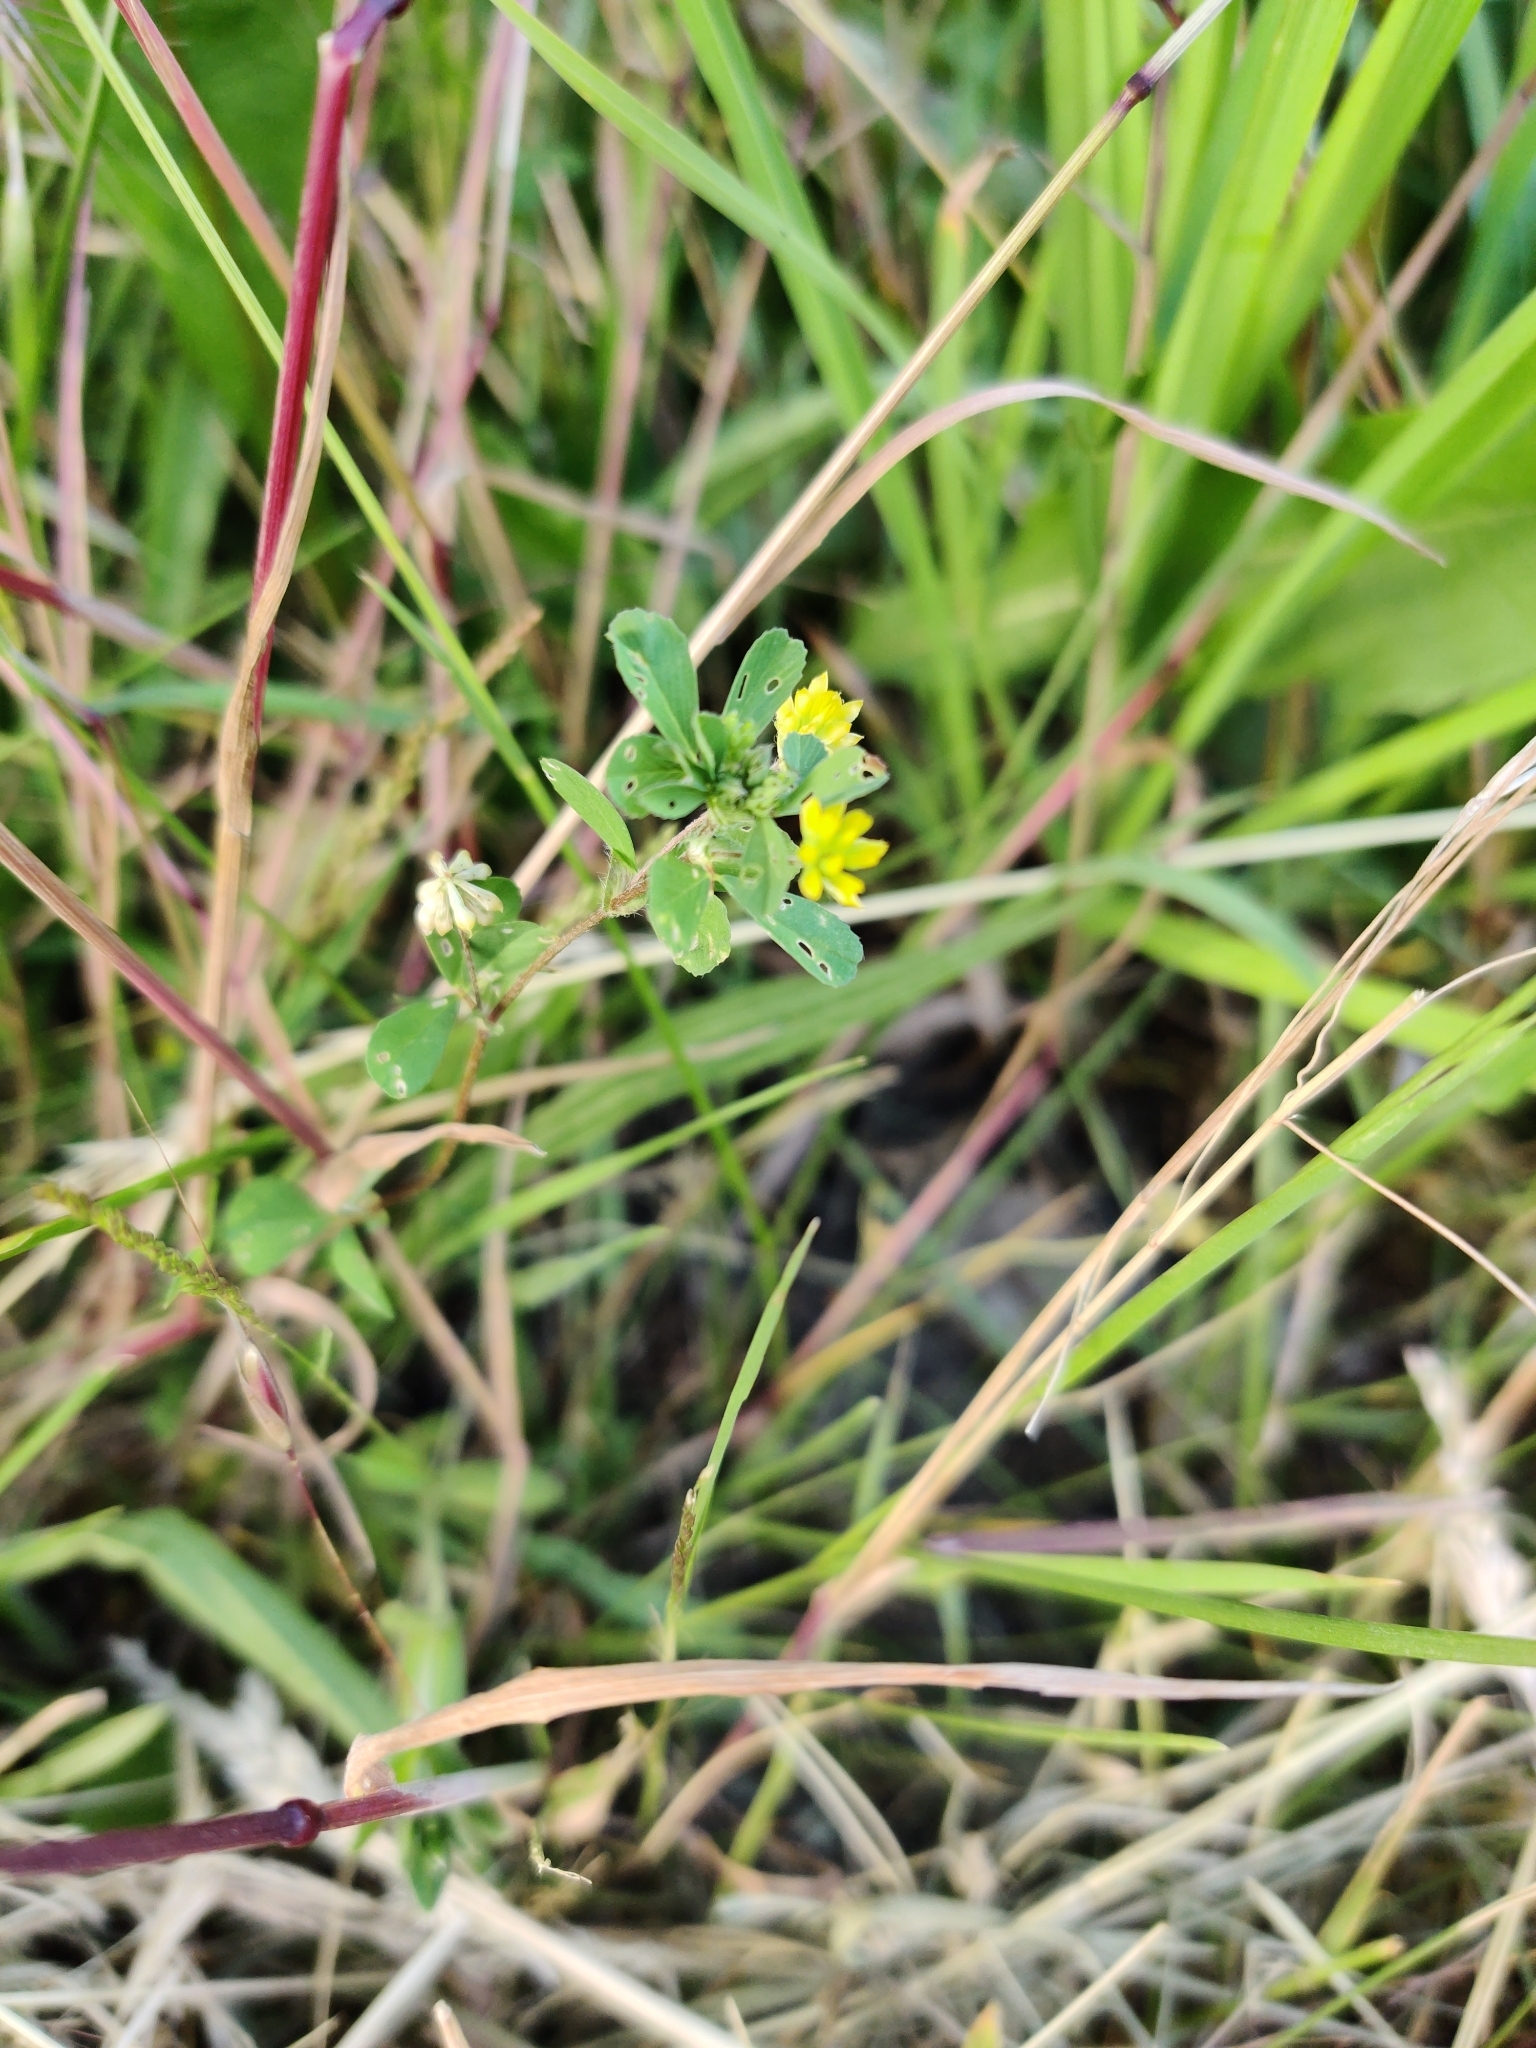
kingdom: Plantae
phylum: Tracheophyta
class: Magnoliopsida
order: Fabales
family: Fabaceae
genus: Trifolium
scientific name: Trifolium dubium
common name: Suckling clover
